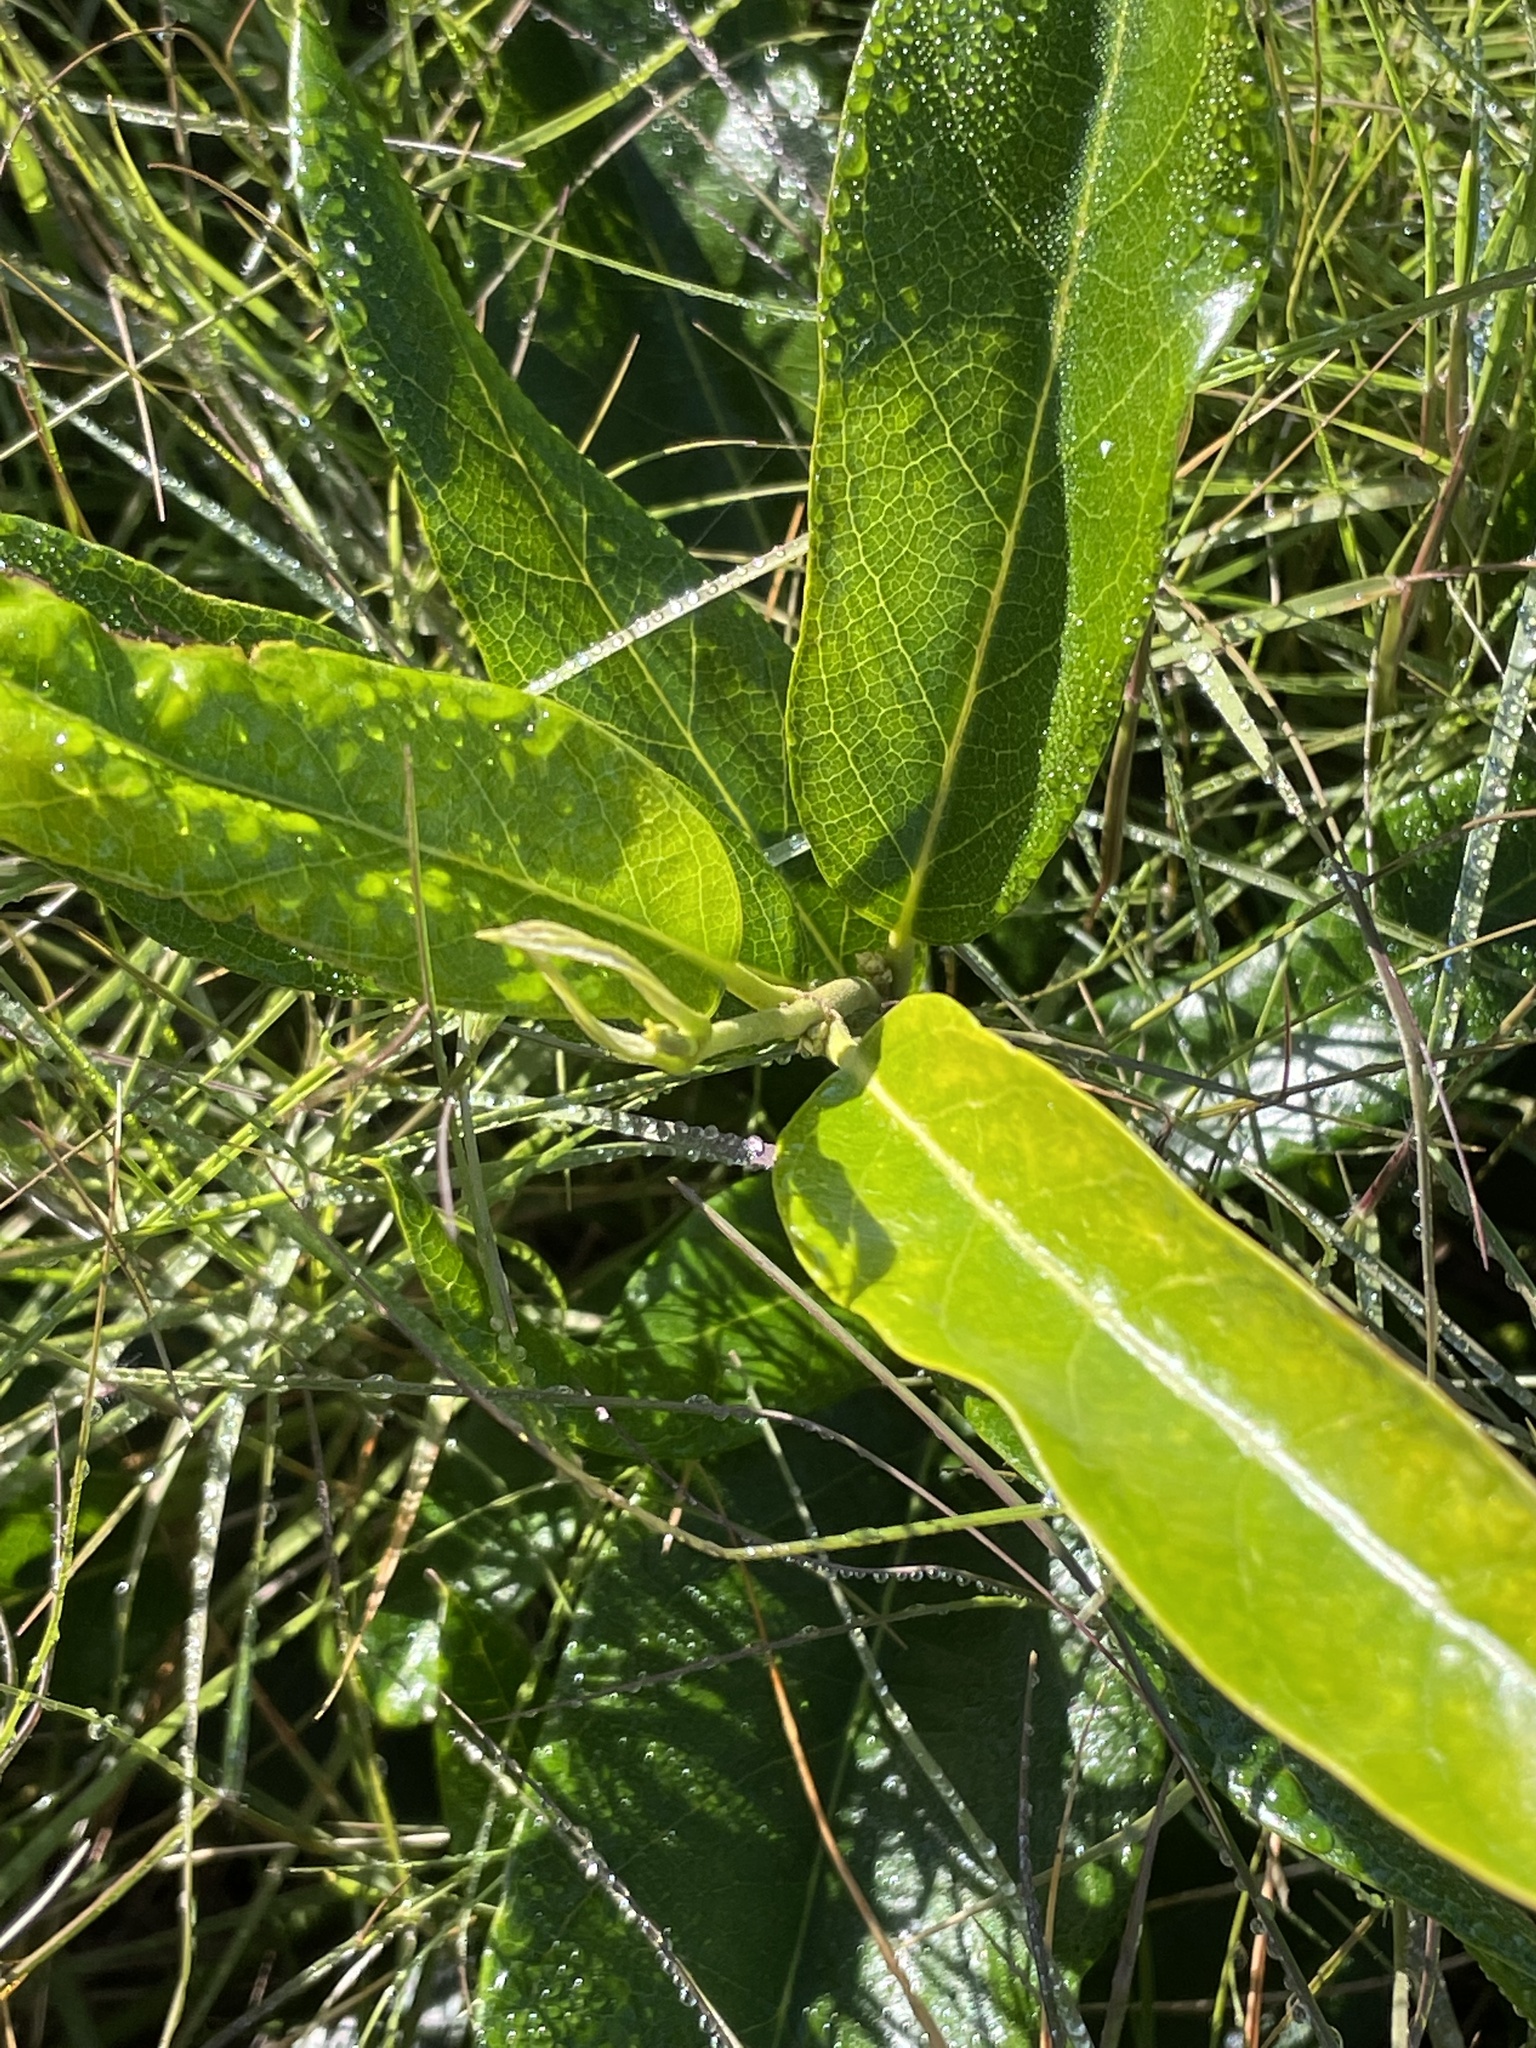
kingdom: Plantae
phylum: Tracheophyta
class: Magnoliopsida
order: Gentianales
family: Apocynaceae
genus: Parsonsia
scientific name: Parsonsia straminea
